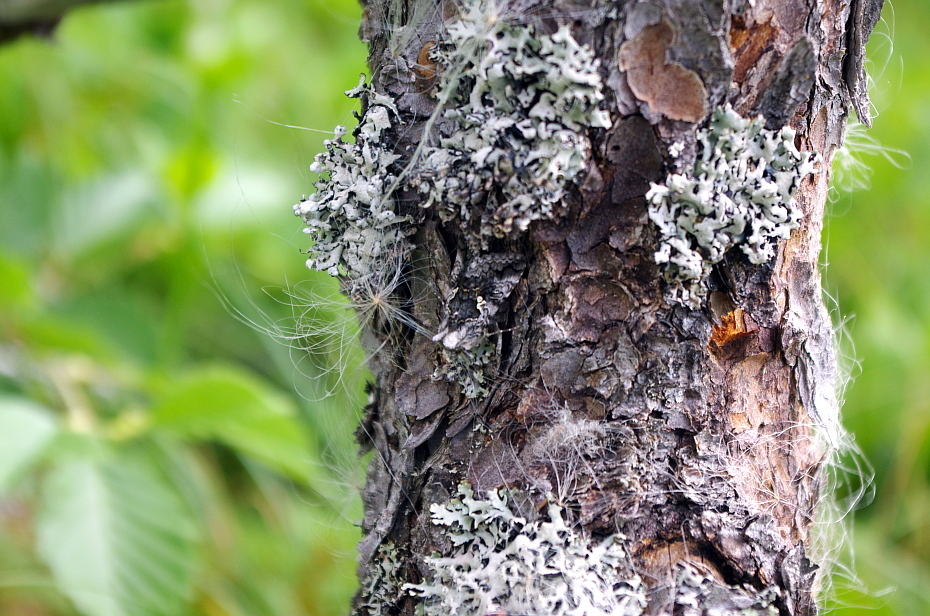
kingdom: Plantae
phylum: Tracheophyta
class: Pinopsida
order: Pinales
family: Pinaceae
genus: Pinus
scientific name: Pinus sylvestris
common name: Scots pine
